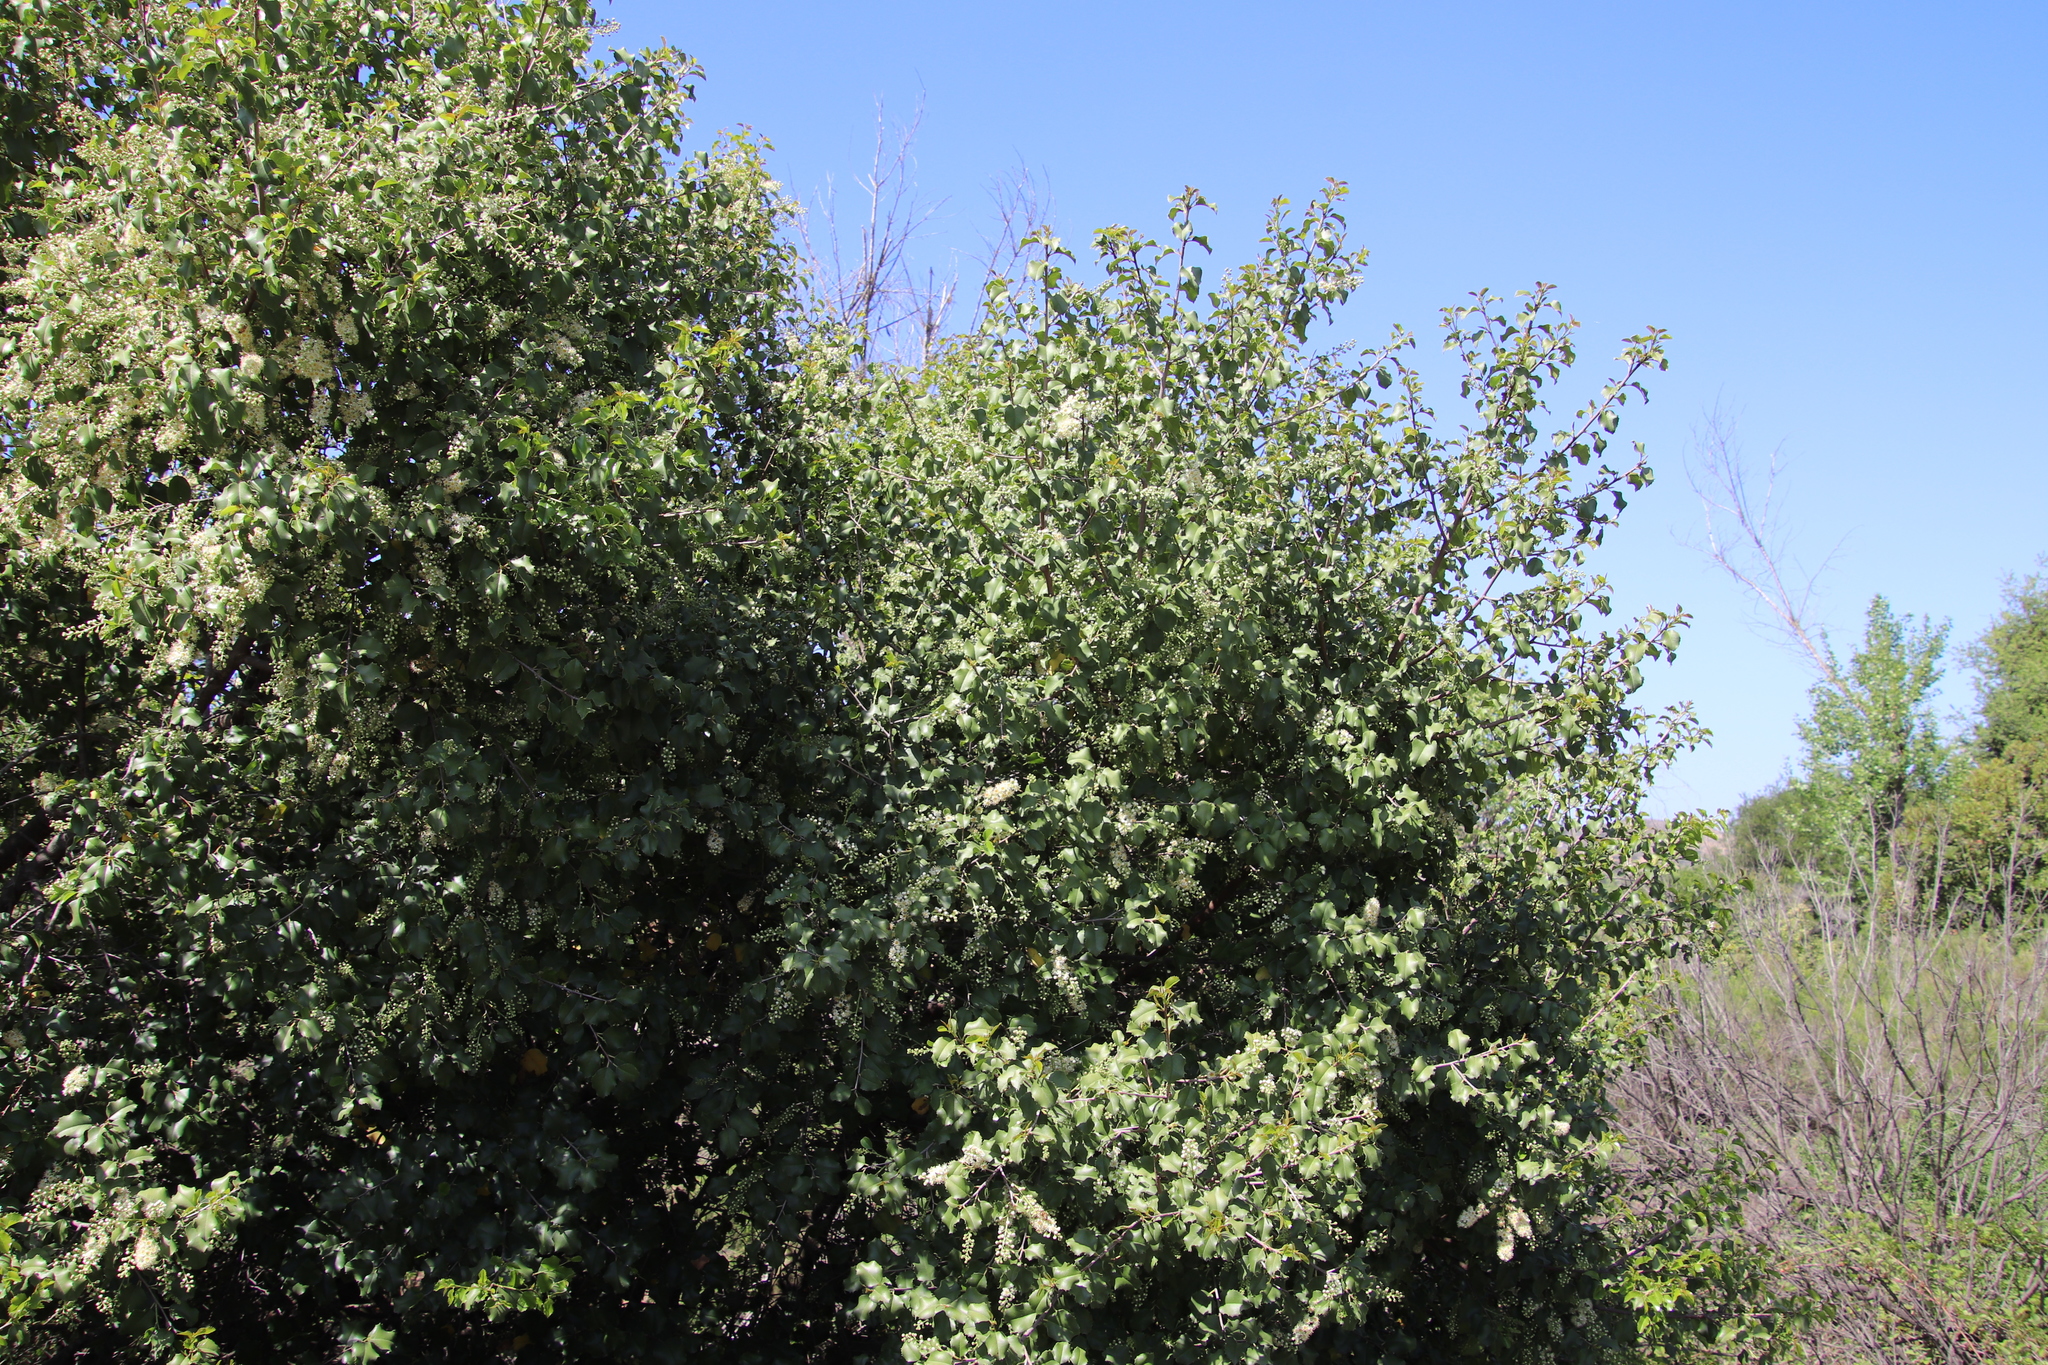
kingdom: Plantae
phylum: Tracheophyta
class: Magnoliopsida
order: Rosales
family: Rosaceae
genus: Prunus
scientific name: Prunus ilicifolia
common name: Hollyleaf cherry
